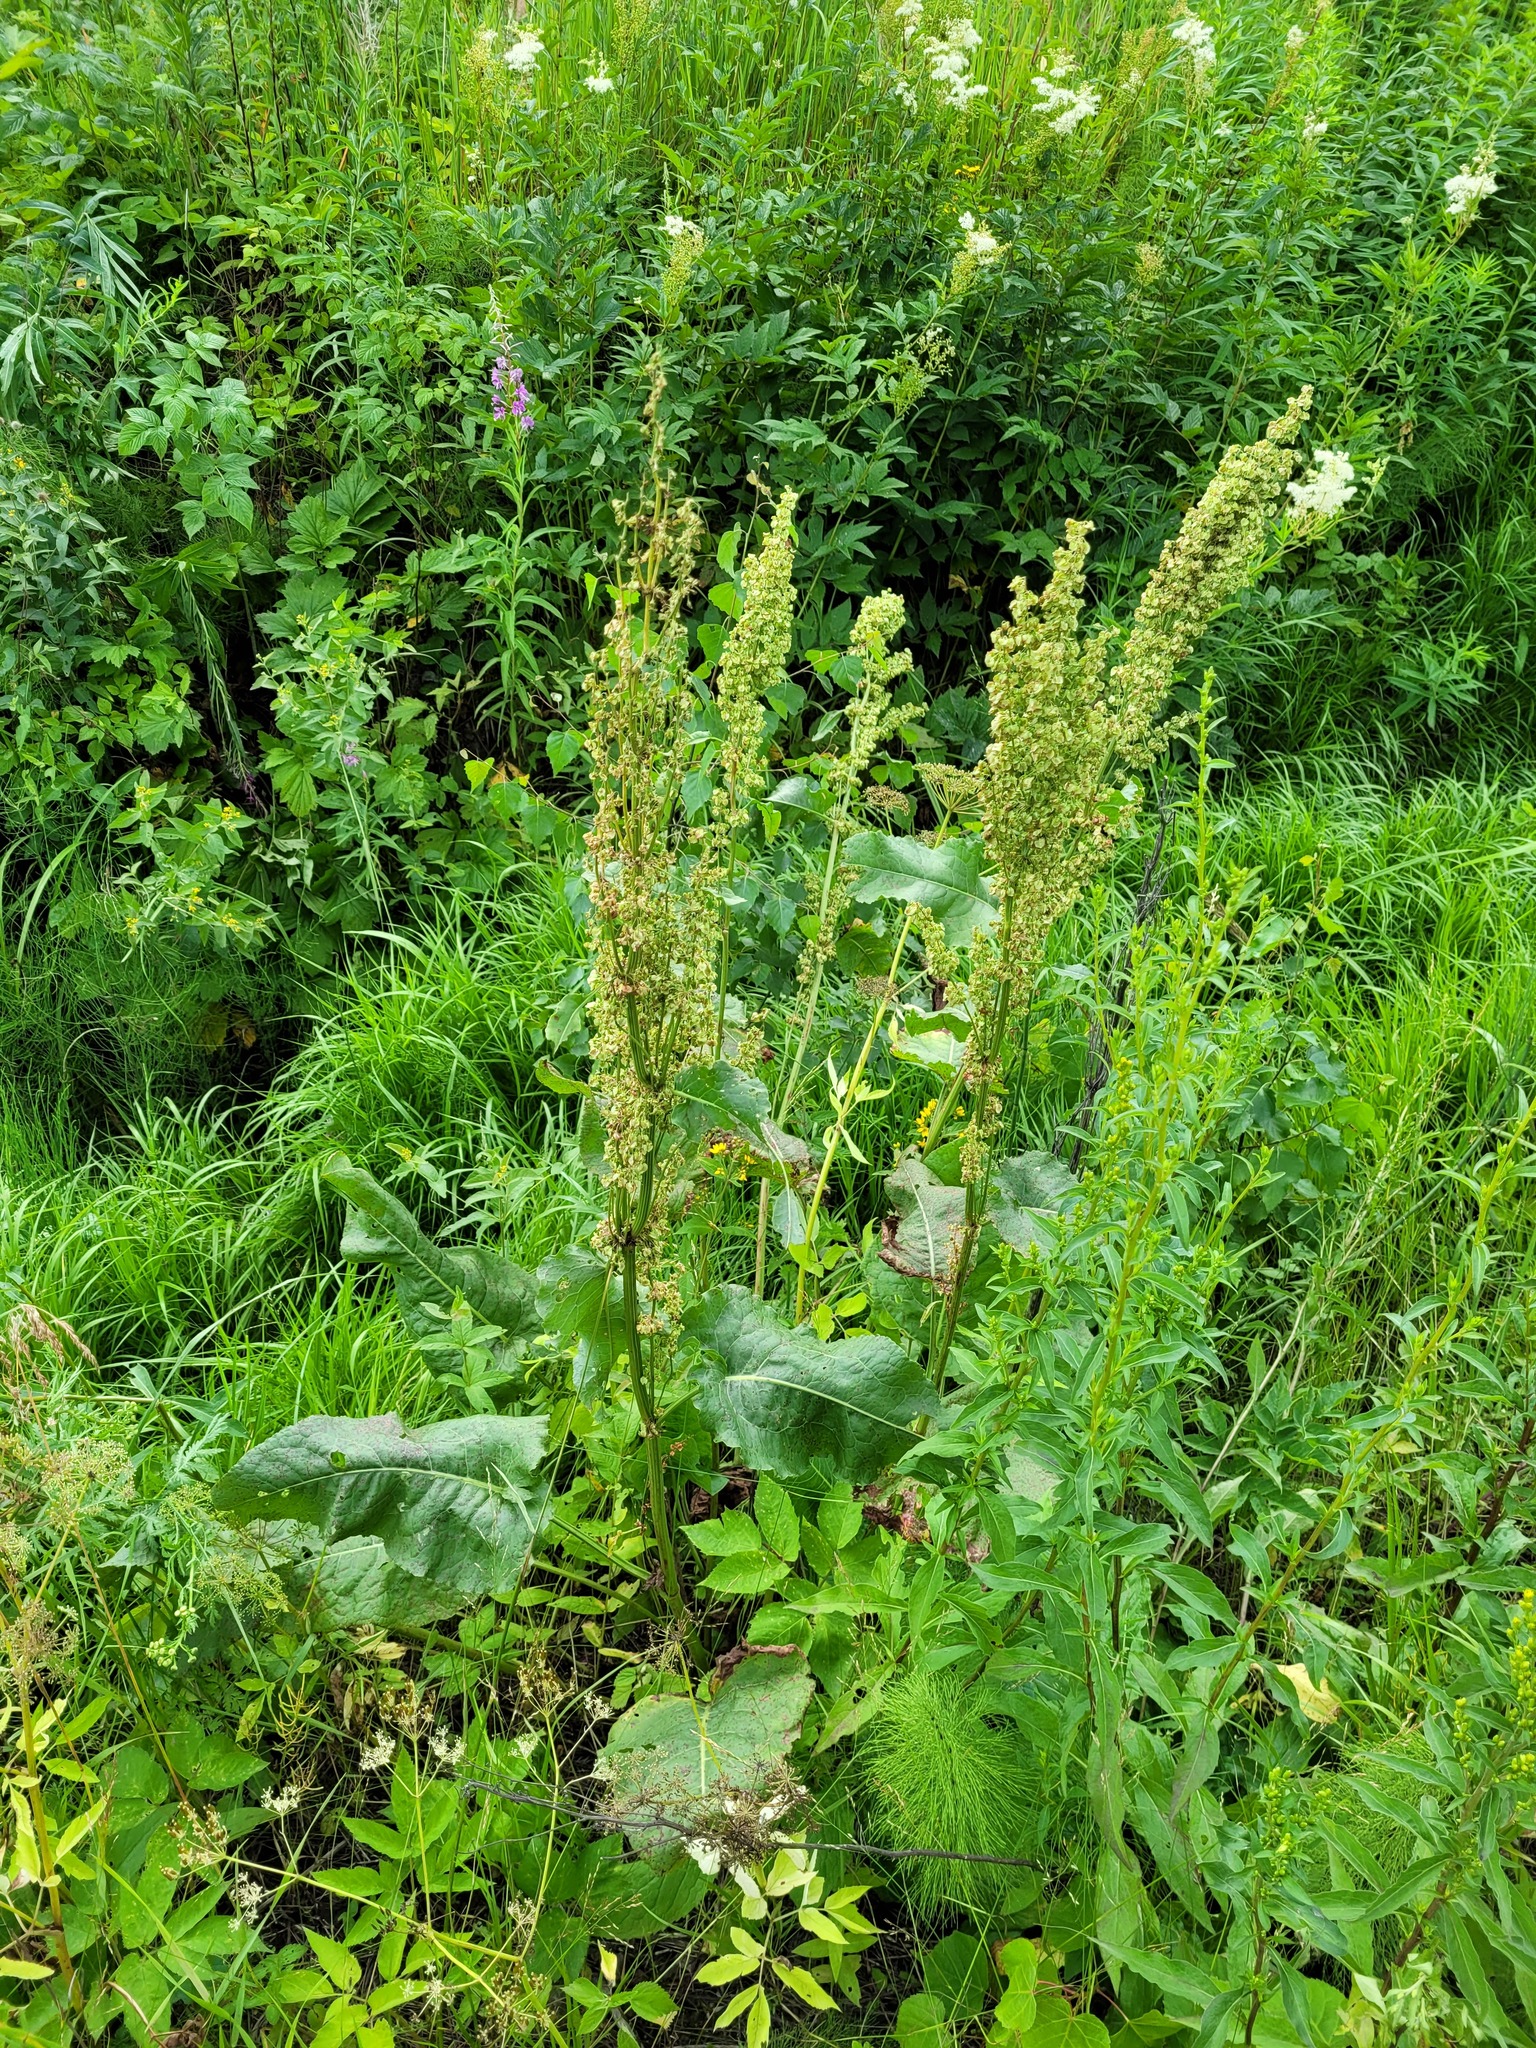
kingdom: Plantae
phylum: Tracheophyta
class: Magnoliopsida
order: Caryophyllales
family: Polygonaceae
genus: Rumex
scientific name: Rumex confertus
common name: Russian dock
